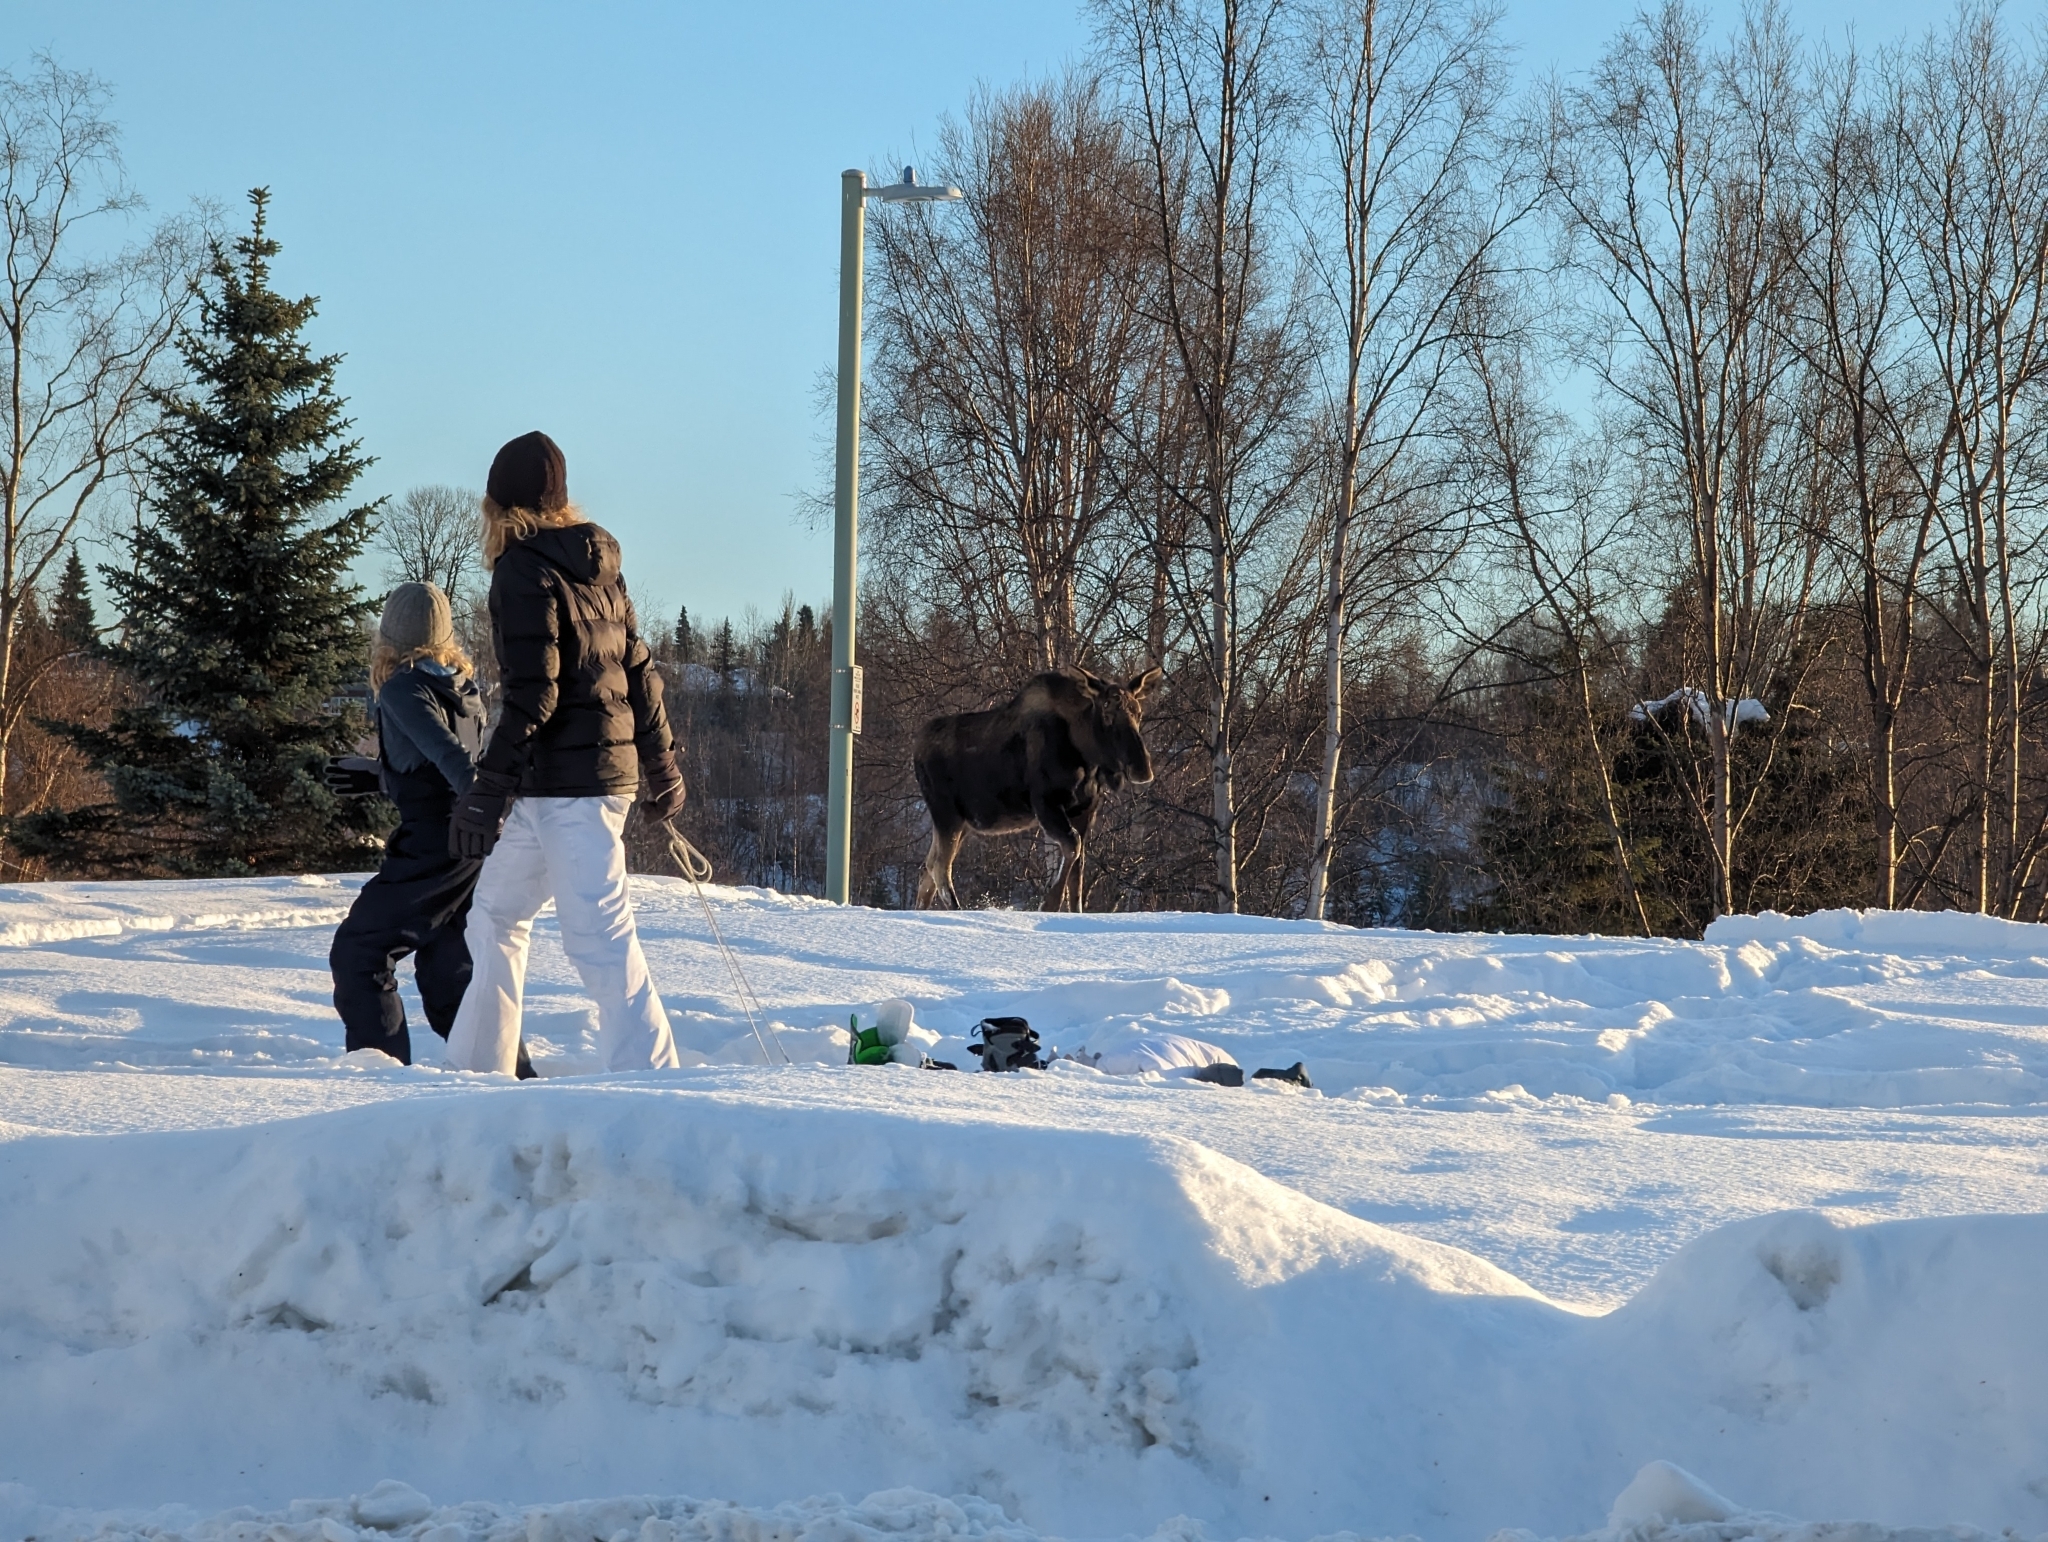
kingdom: Animalia
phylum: Chordata
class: Mammalia
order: Artiodactyla
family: Cervidae
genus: Alces
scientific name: Alces alces
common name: Moose
